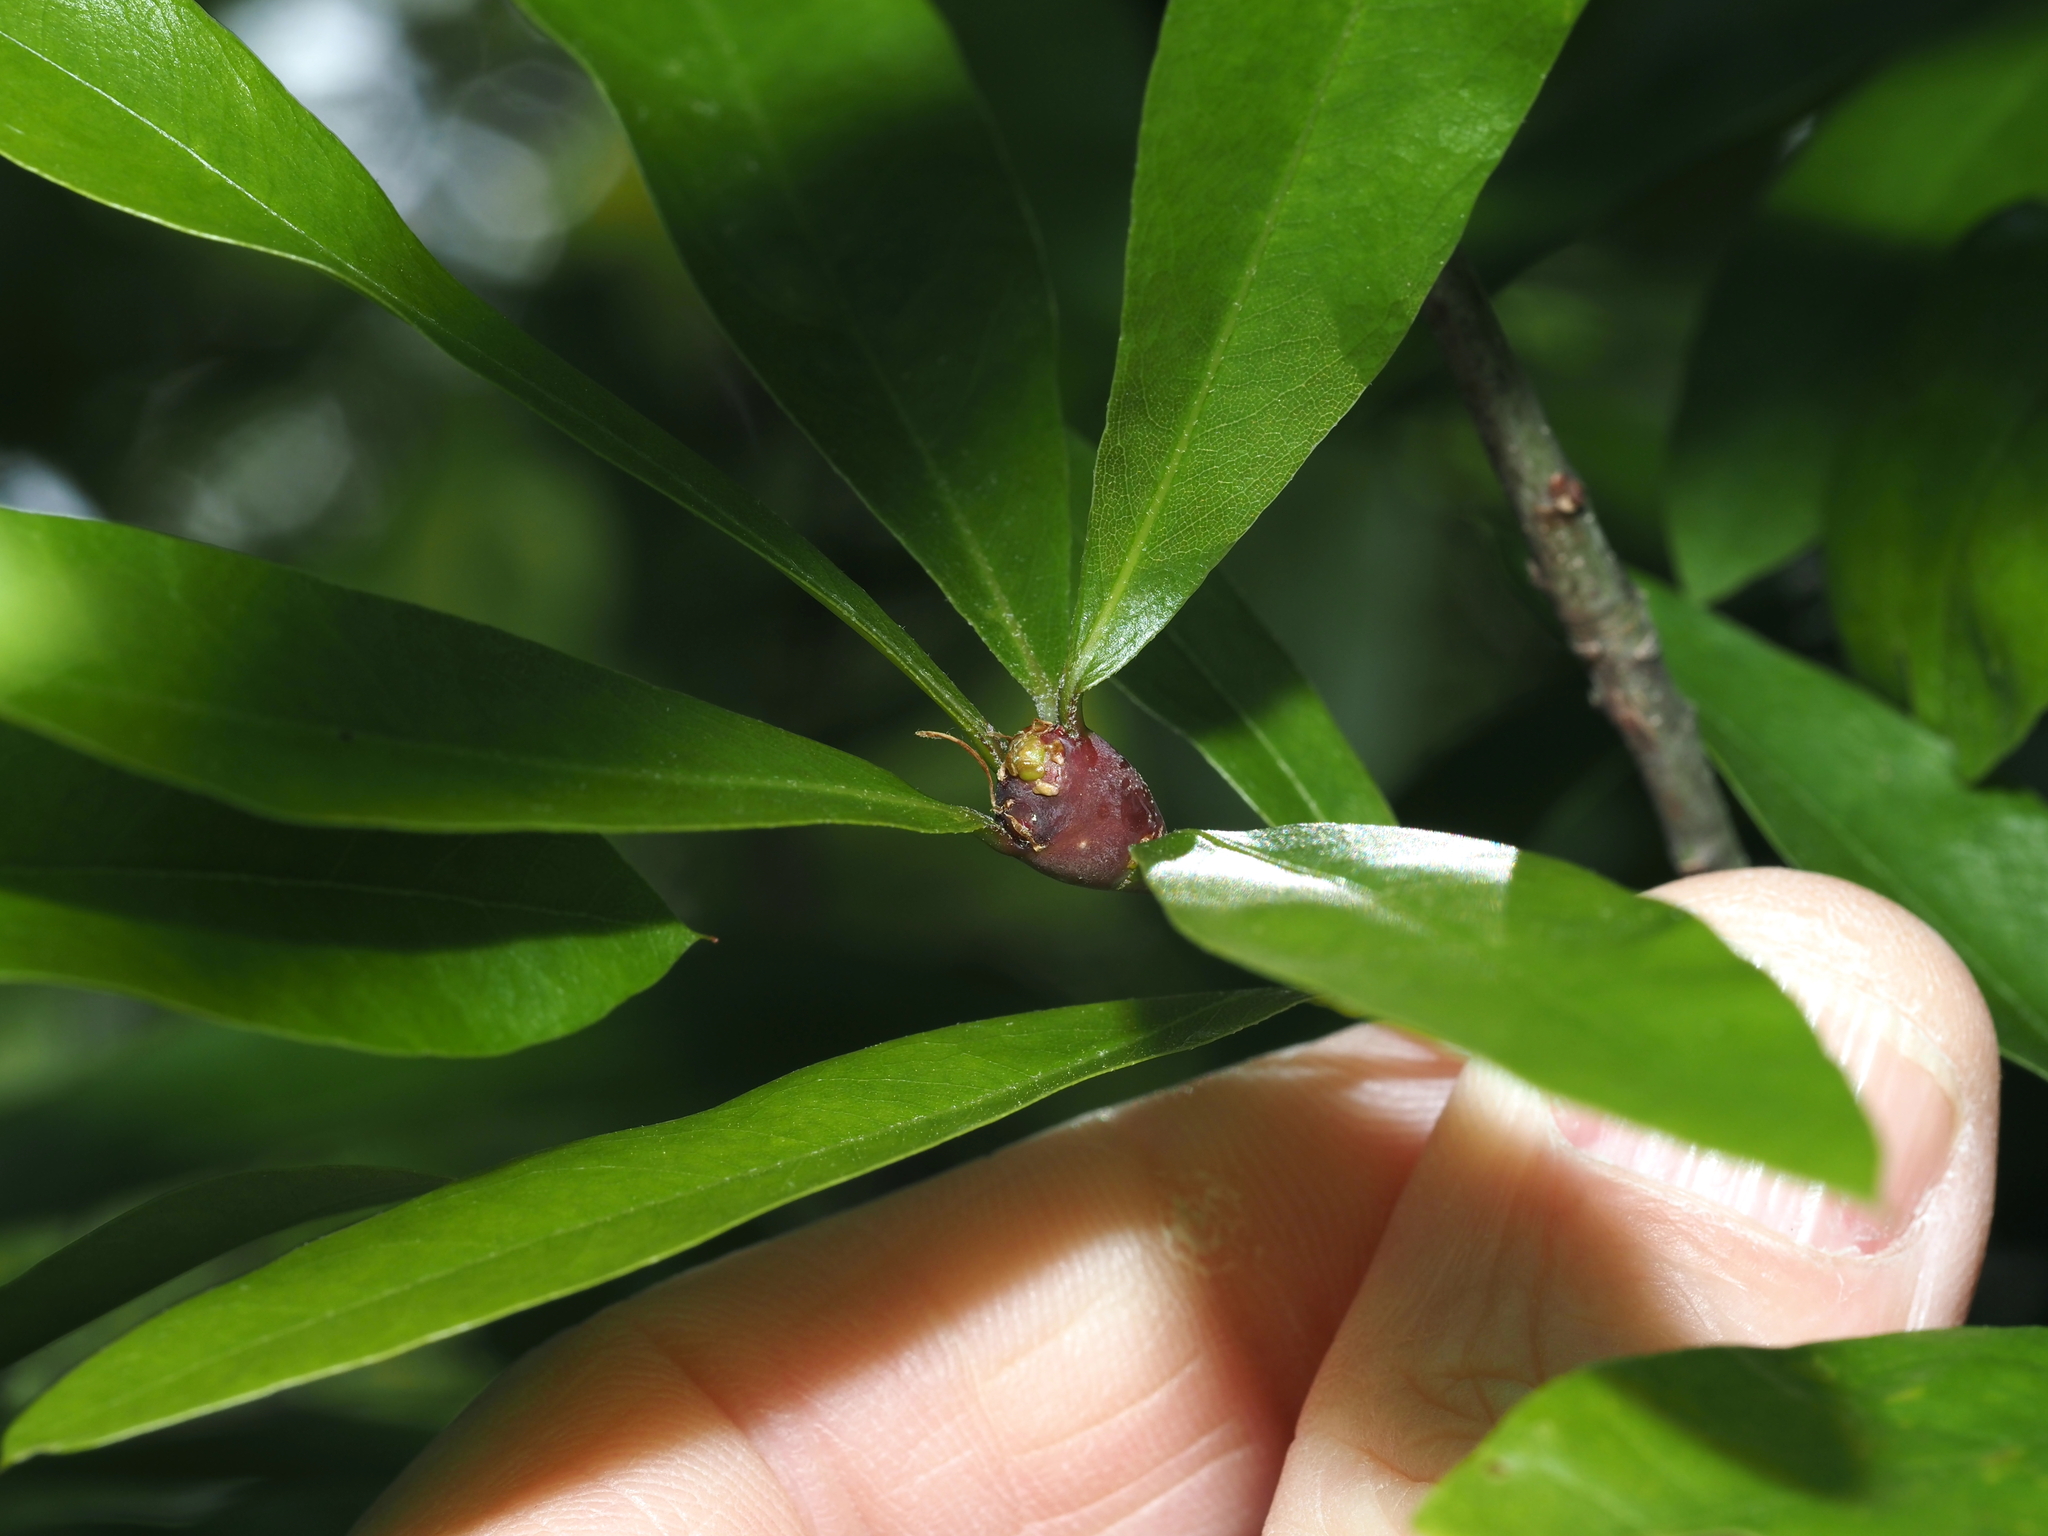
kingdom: Animalia
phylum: Arthropoda
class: Insecta
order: Hymenoptera
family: Cynipidae
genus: Zapatella
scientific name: Zapatella quercusphellos
